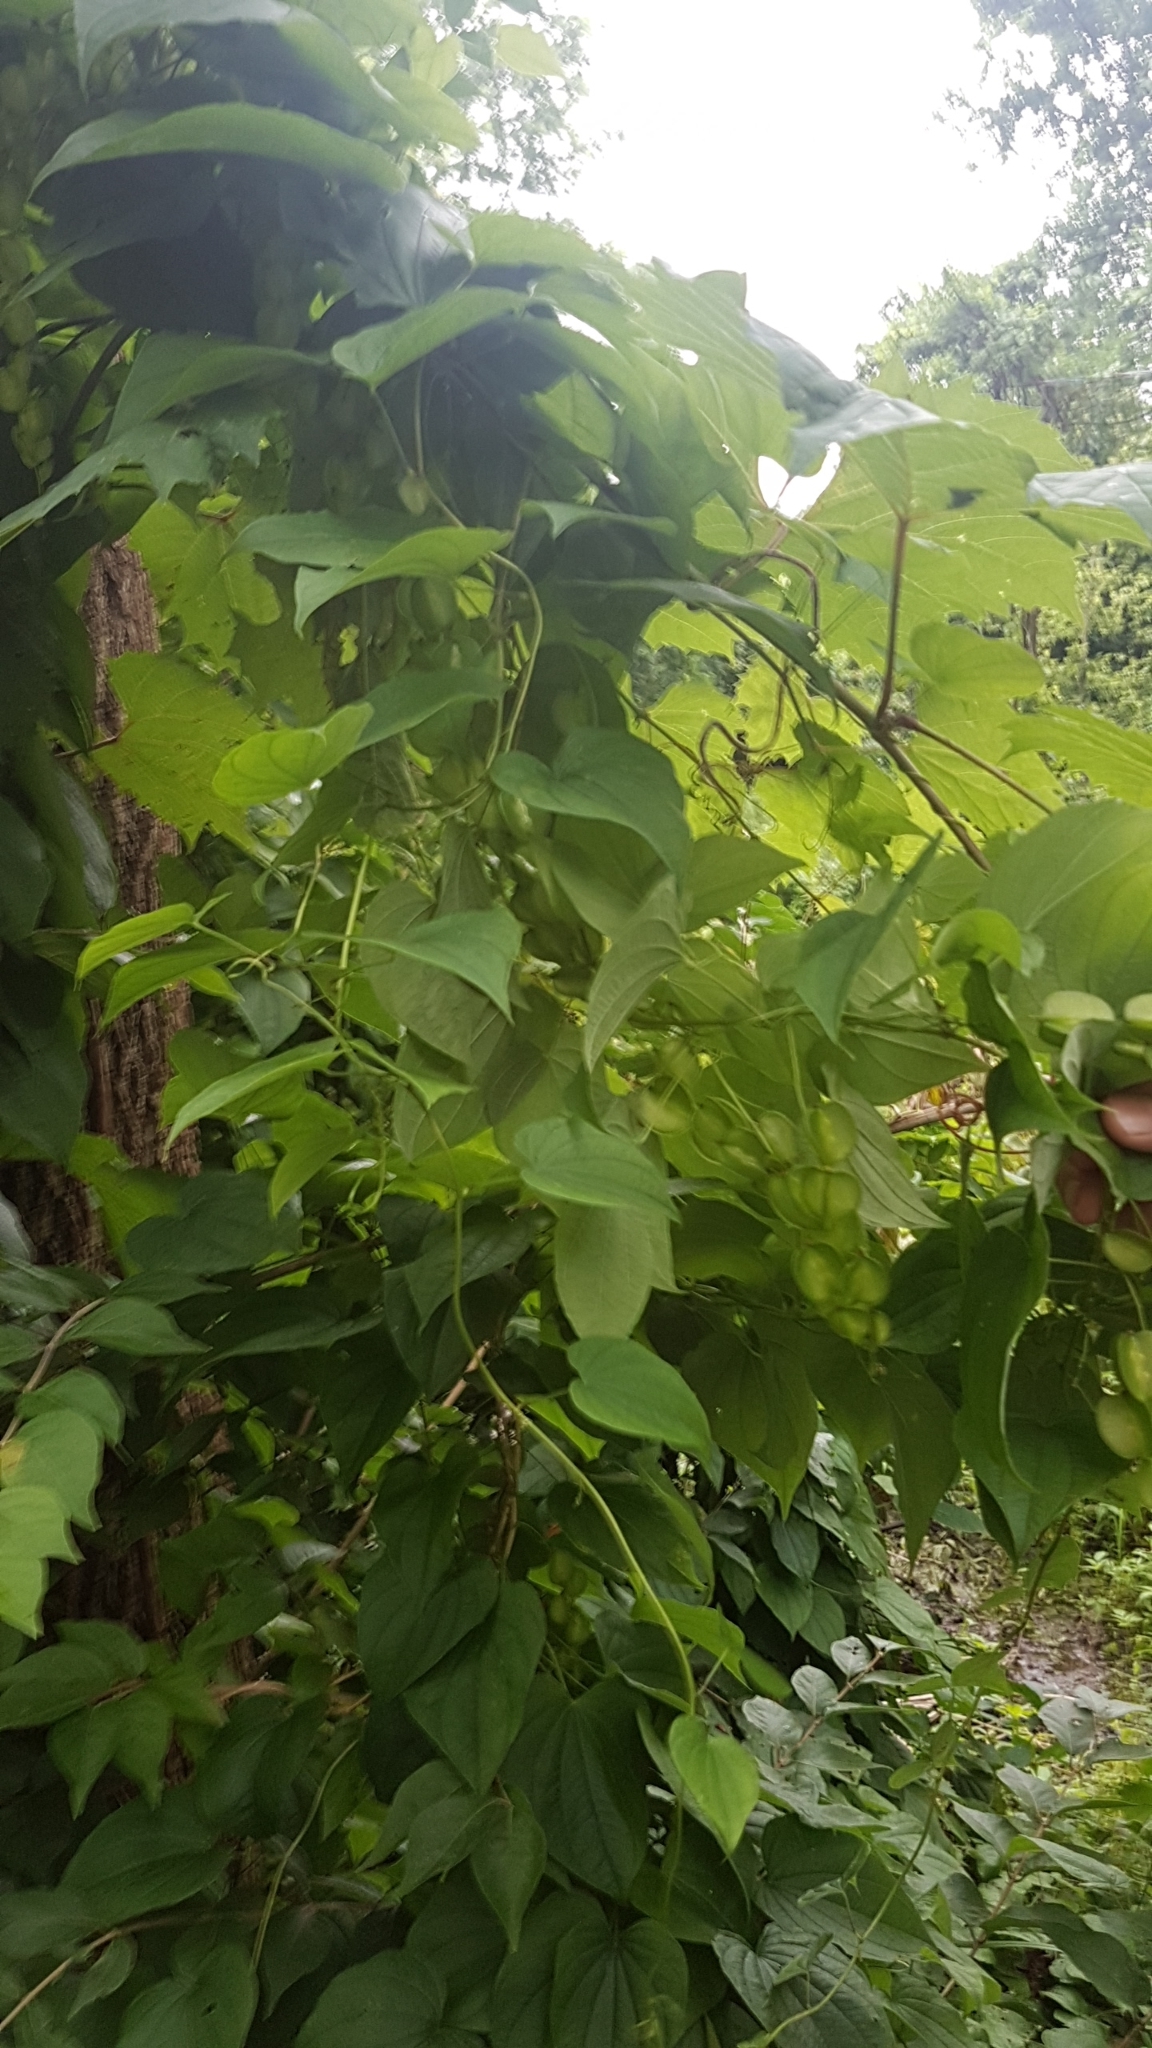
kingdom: Plantae
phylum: Tracheophyta
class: Liliopsida
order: Dioscoreales
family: Dioscoreaceae
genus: Dioscorea
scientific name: Dioscorea villosa
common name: Wild yam
